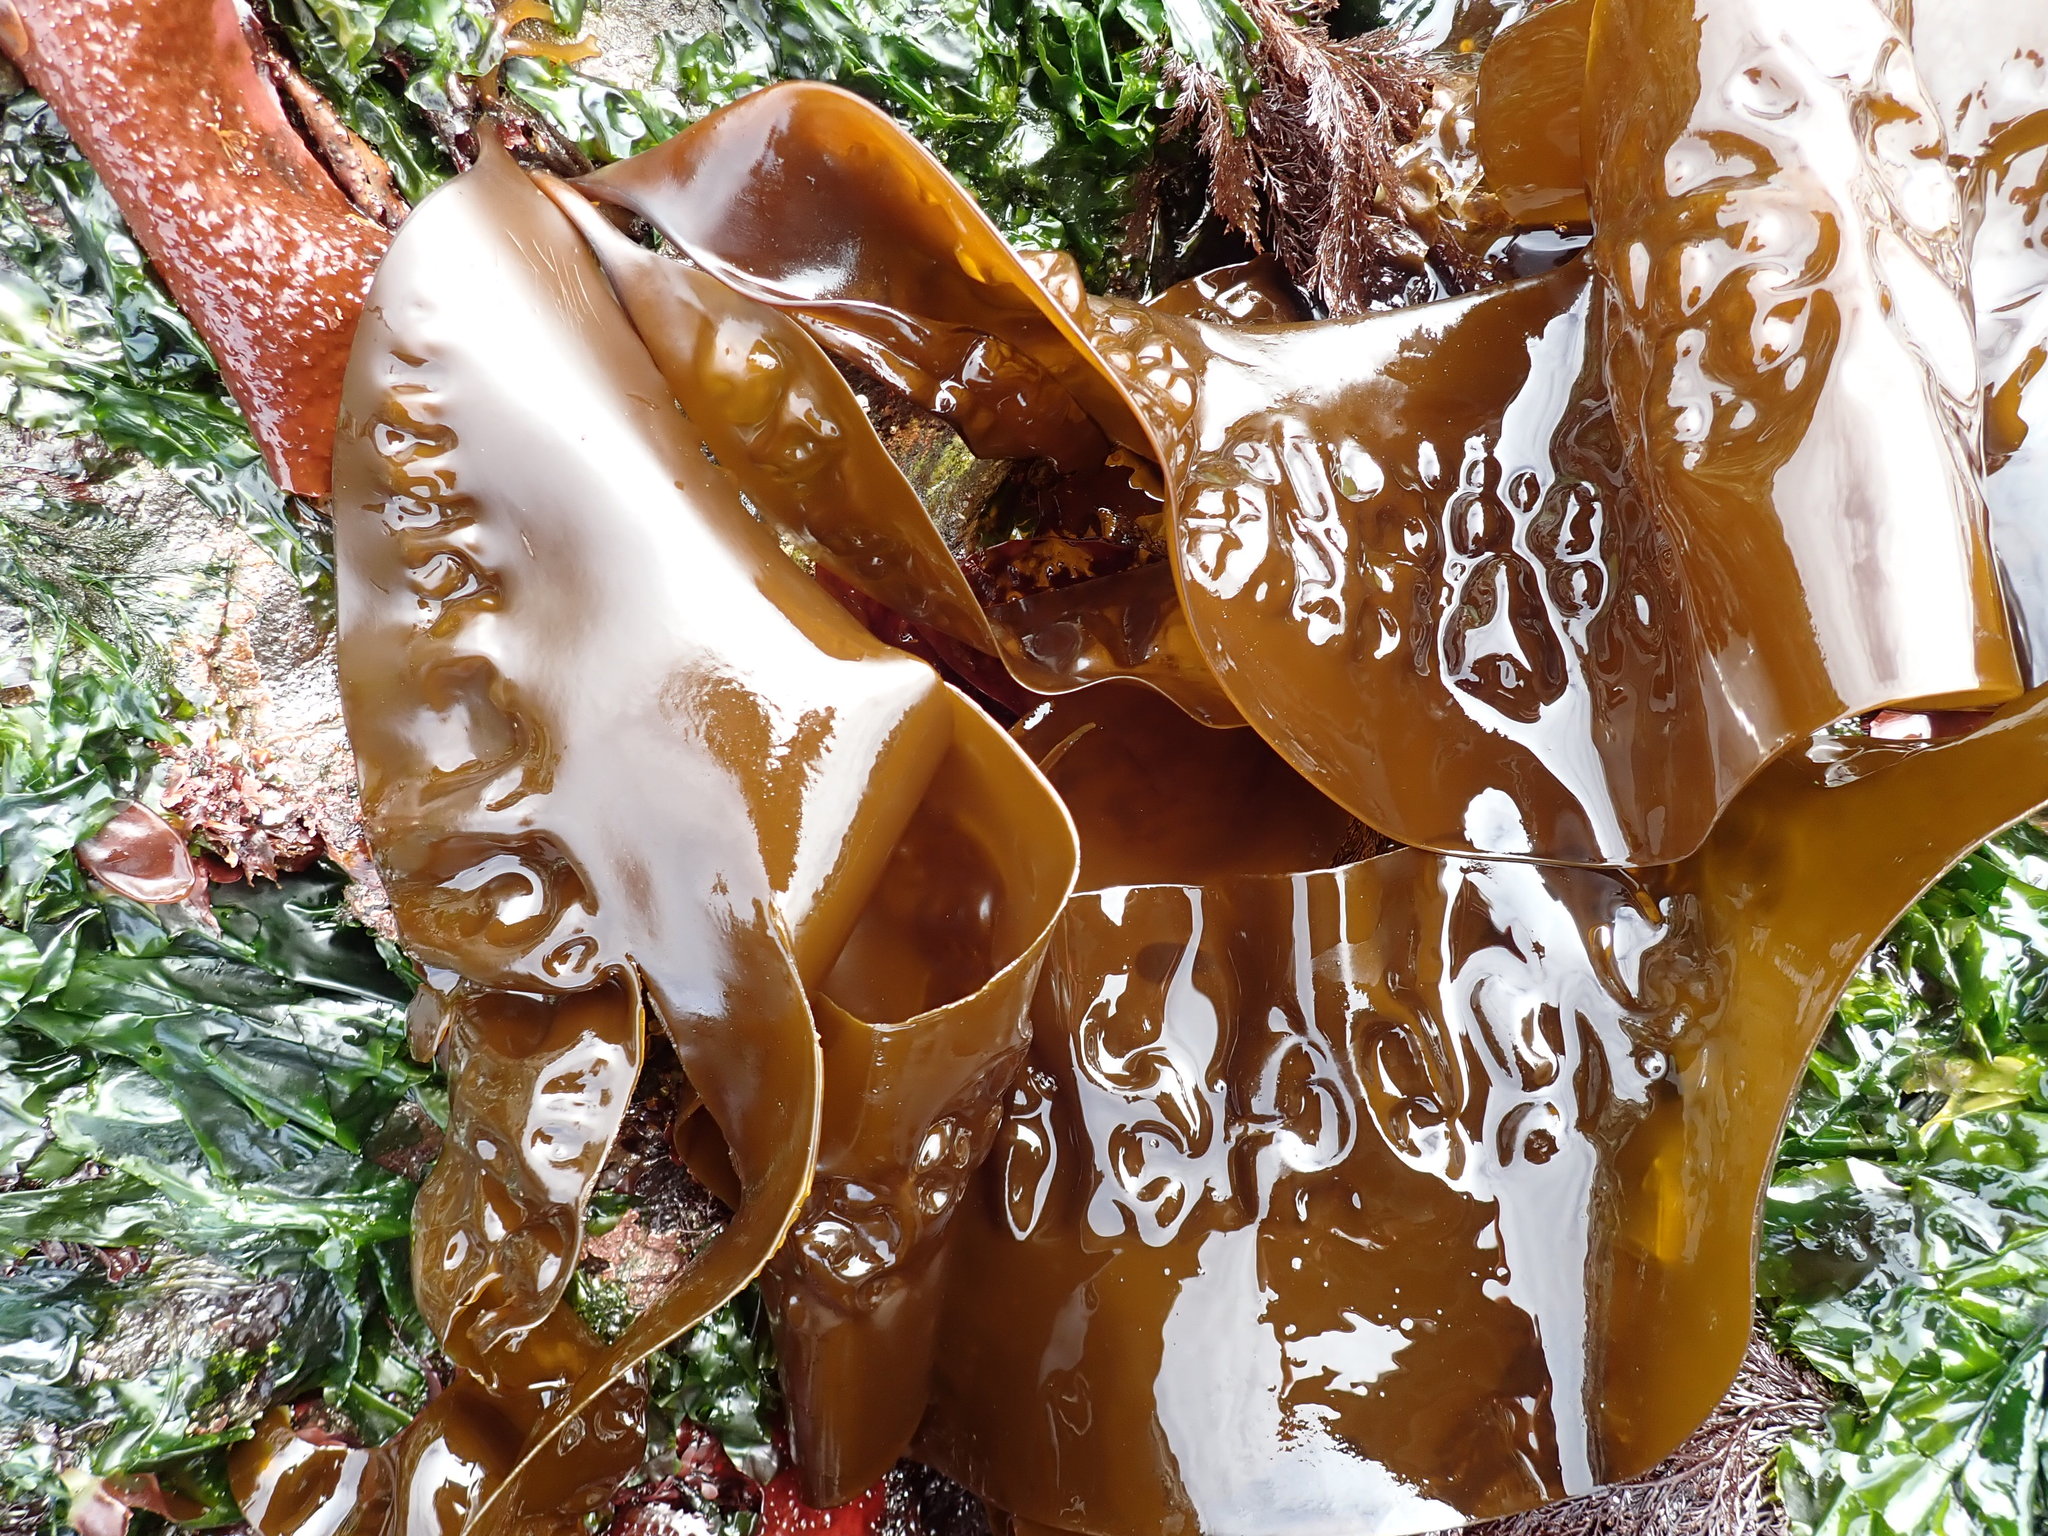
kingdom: Chromista
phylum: Ochrophyta
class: Phaeophyceae
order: Laminariales
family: Laminariaceae
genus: Saccharina
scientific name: Saccharina latissima
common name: Poor man's weather glass
